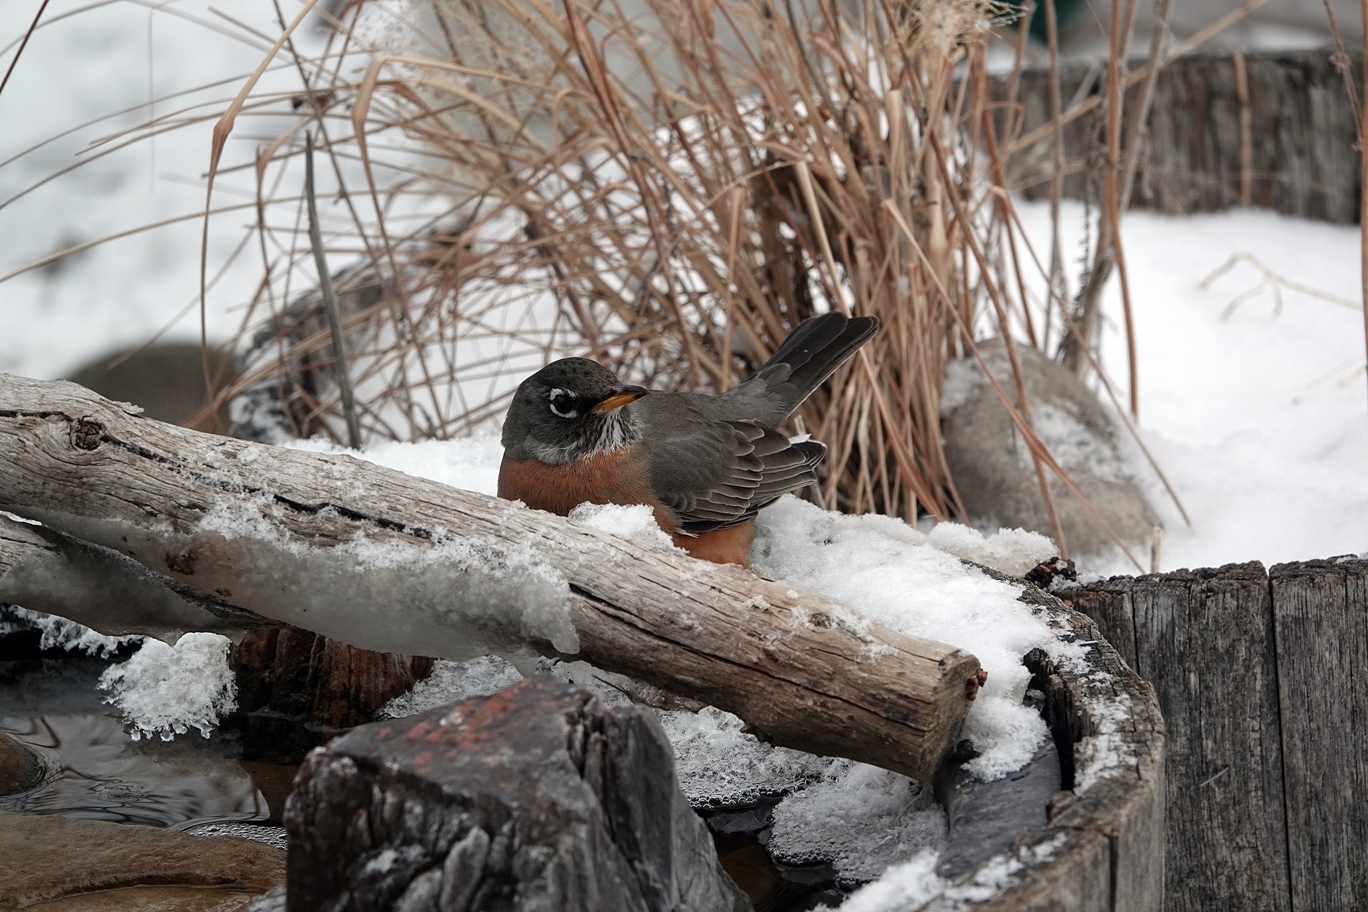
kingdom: Animalia
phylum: Chordata
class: Aves
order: Passeriformes
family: Turdidae
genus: Turdus
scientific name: Turdus migratorius
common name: American robin
